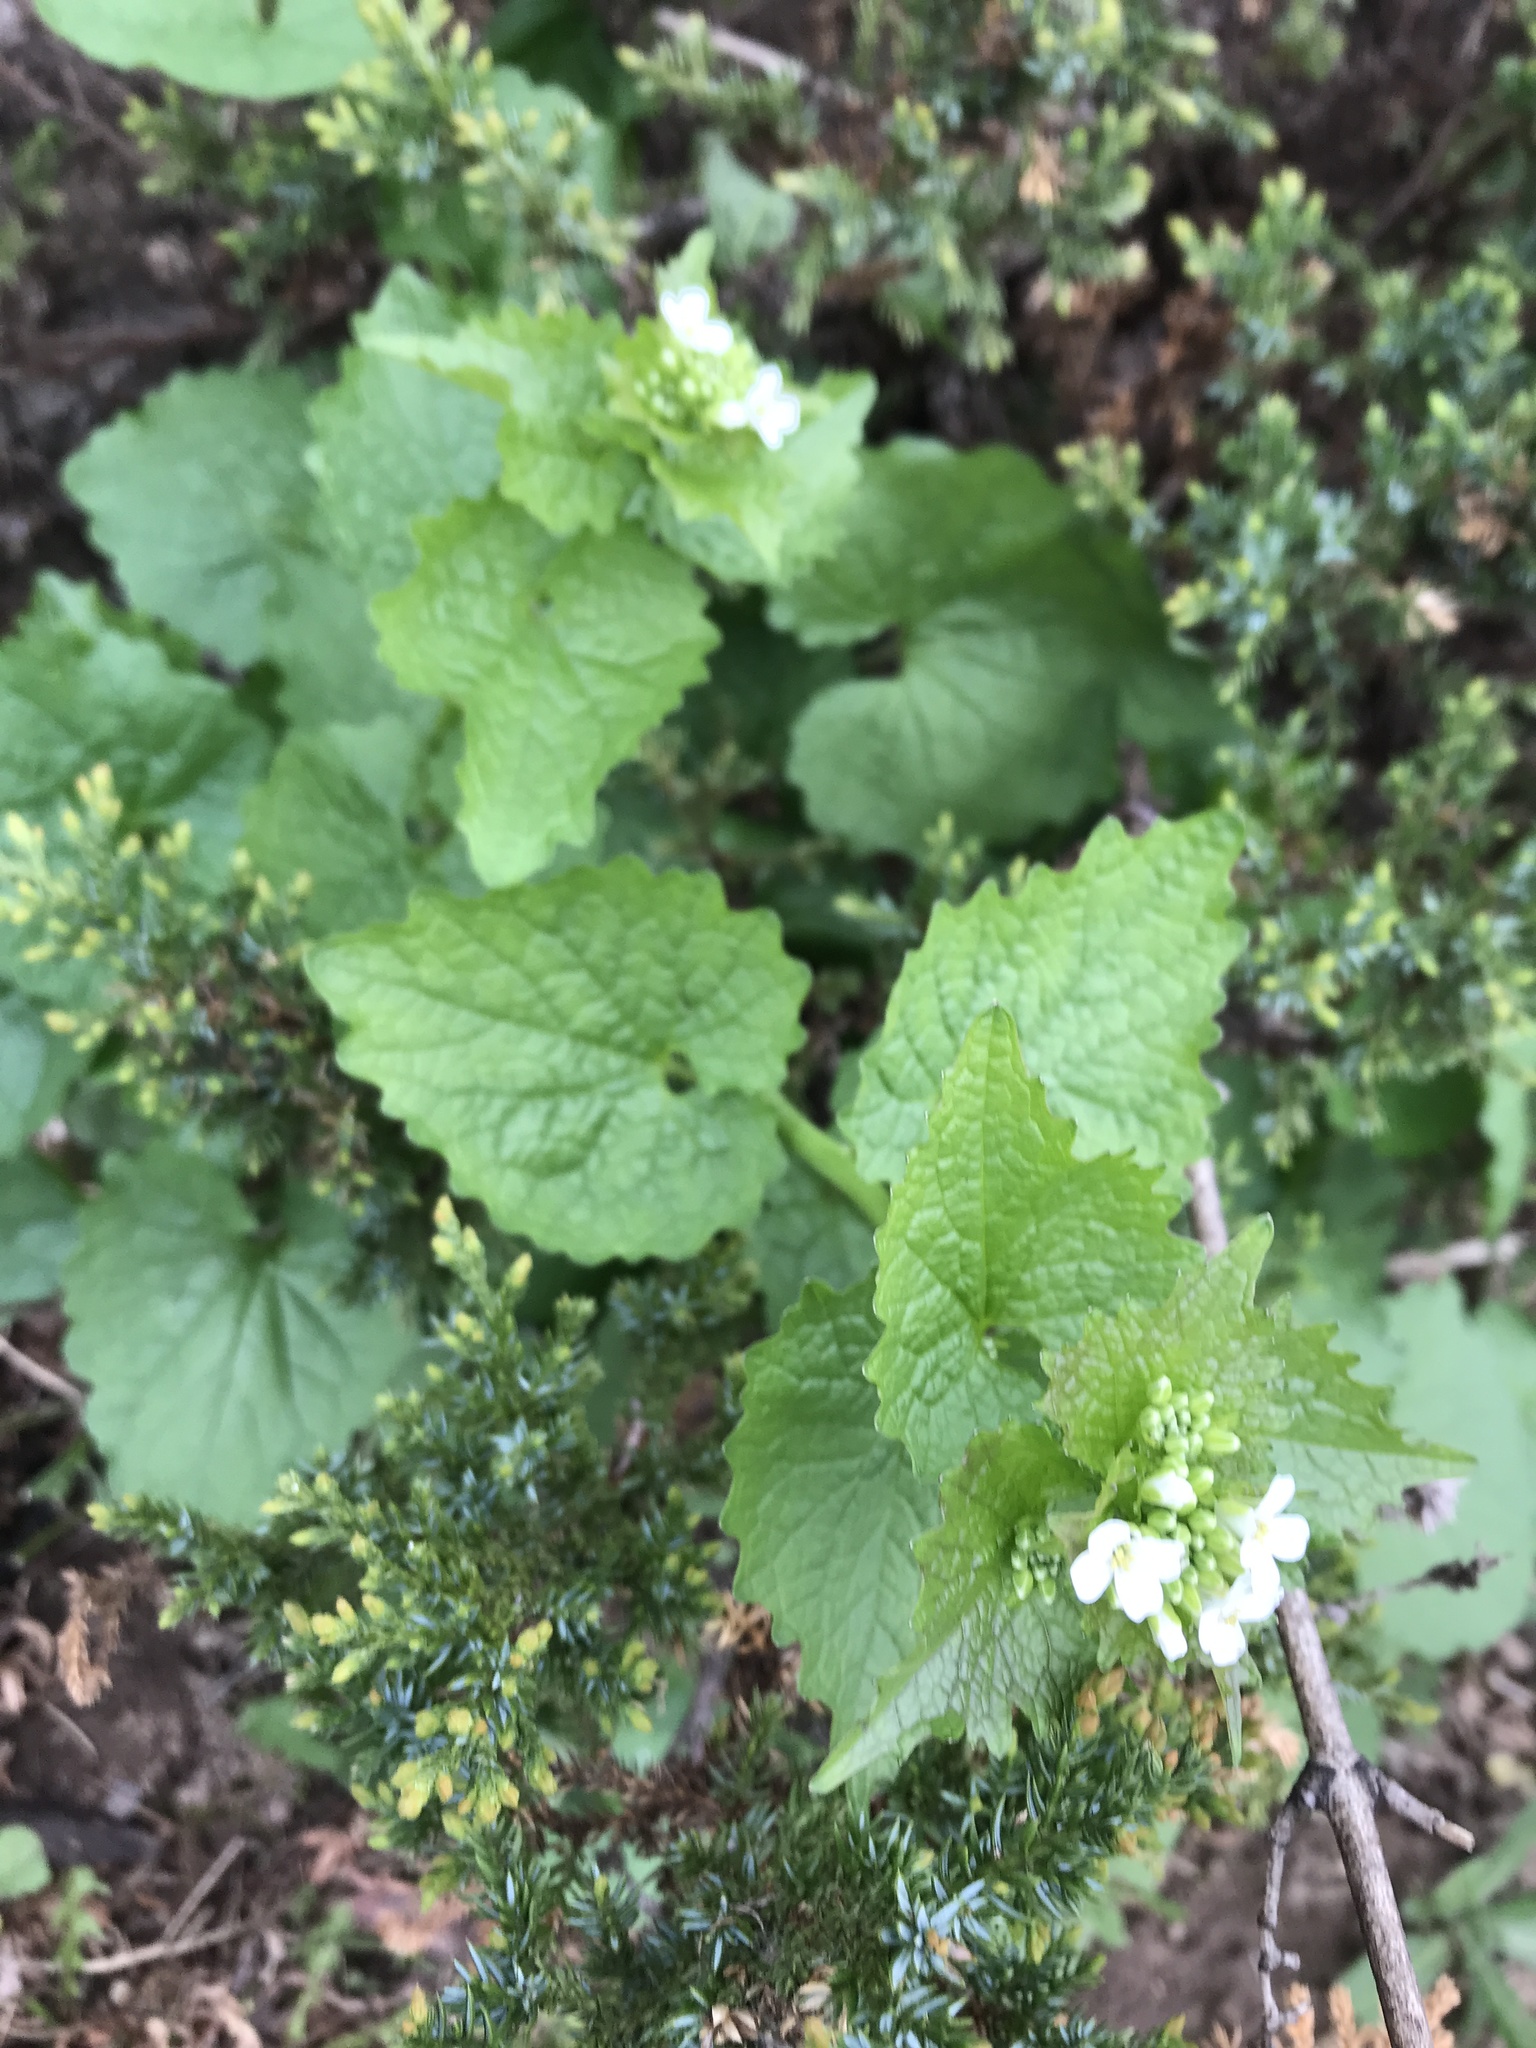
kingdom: Plantae
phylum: Tracheophyta
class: Magnoliopsida
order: Brassicales
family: Brassicaceae
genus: Alliaria
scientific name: Alliaria petiolata
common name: Garlic mustard
